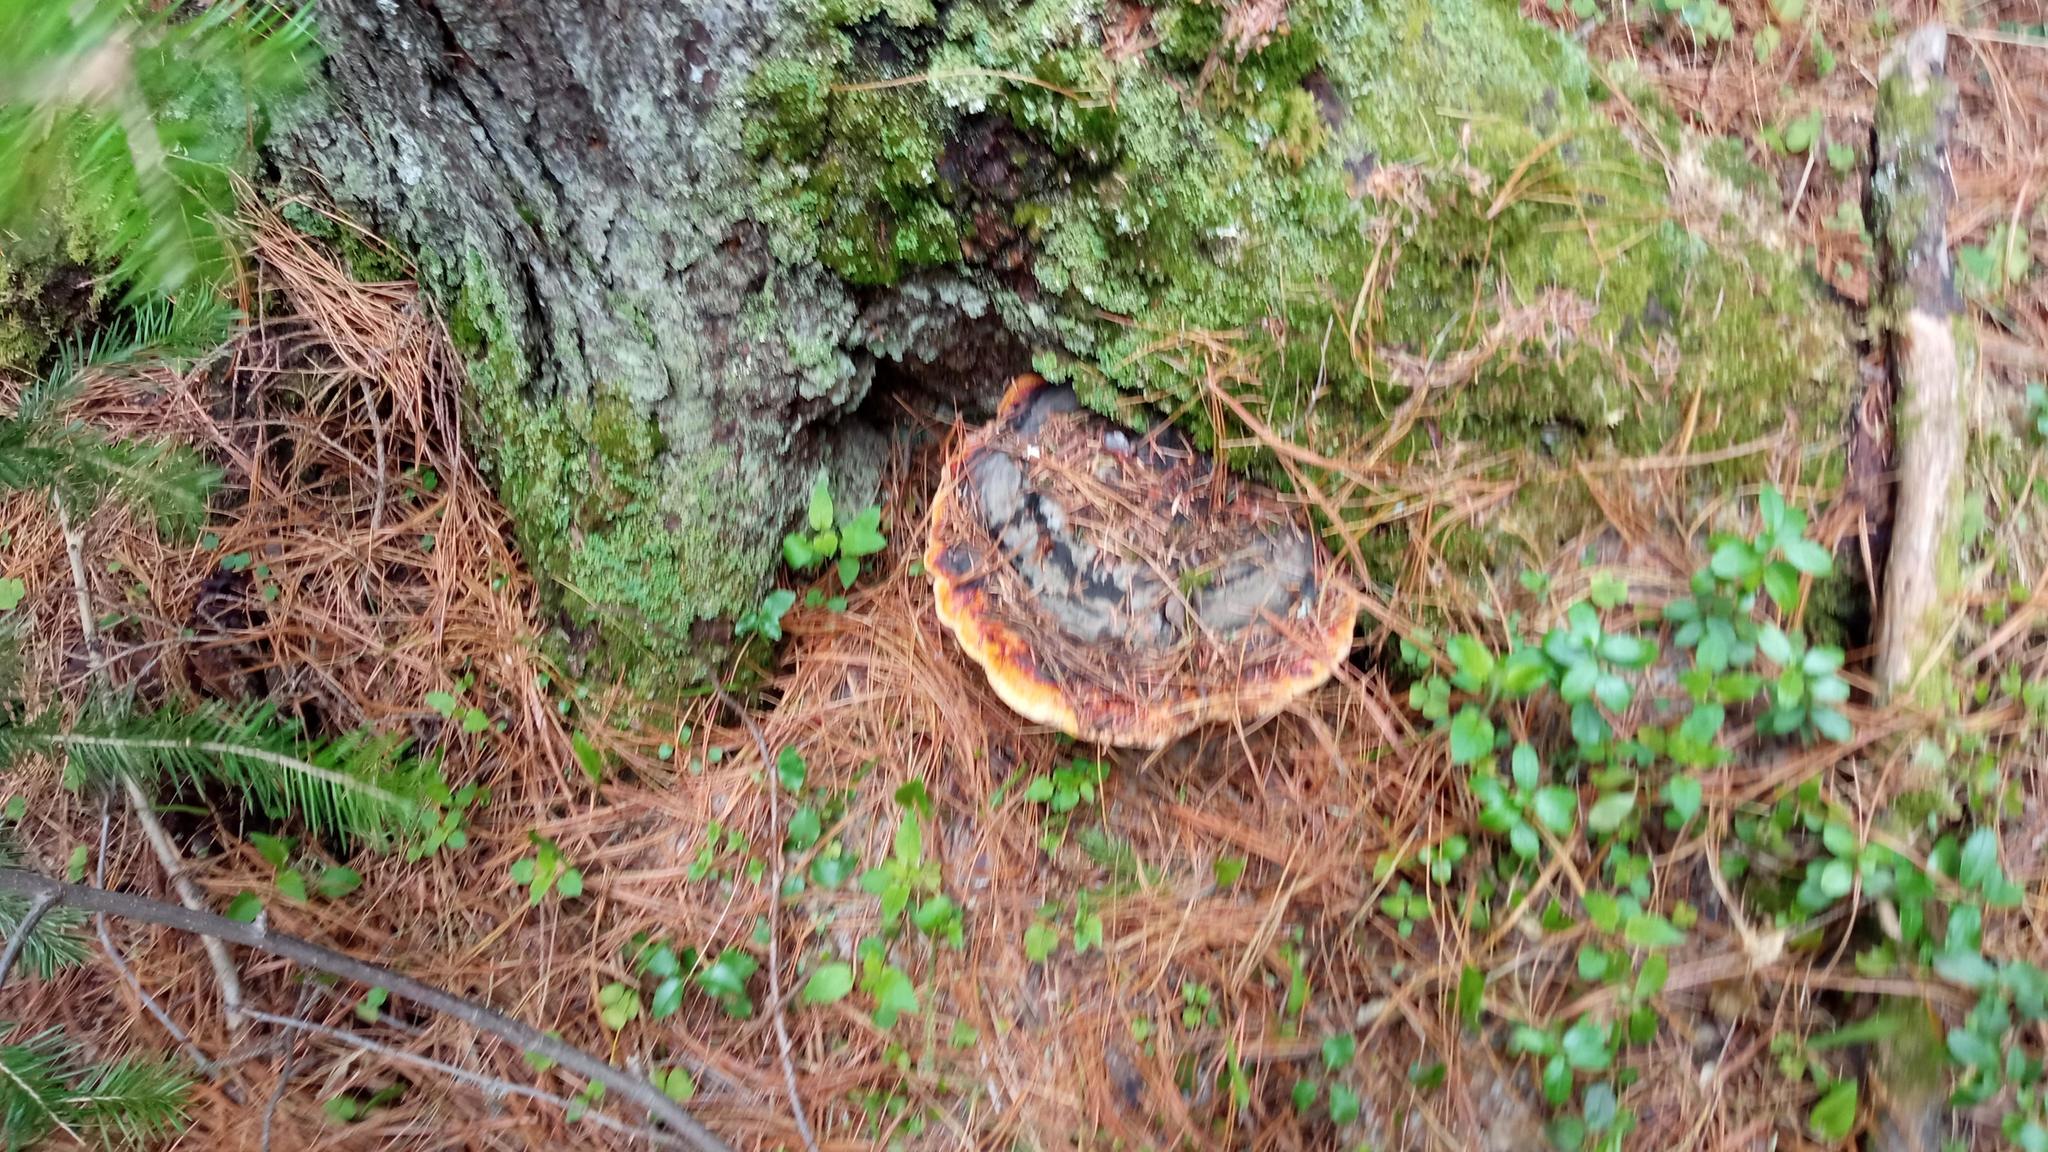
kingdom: Fungi
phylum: Basidiomycota
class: Agaricomycetes
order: Polyporales
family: Fomitopsidaceae
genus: Fomitopsis
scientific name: Fomitopsis pinicola
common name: Red-belted bracket
